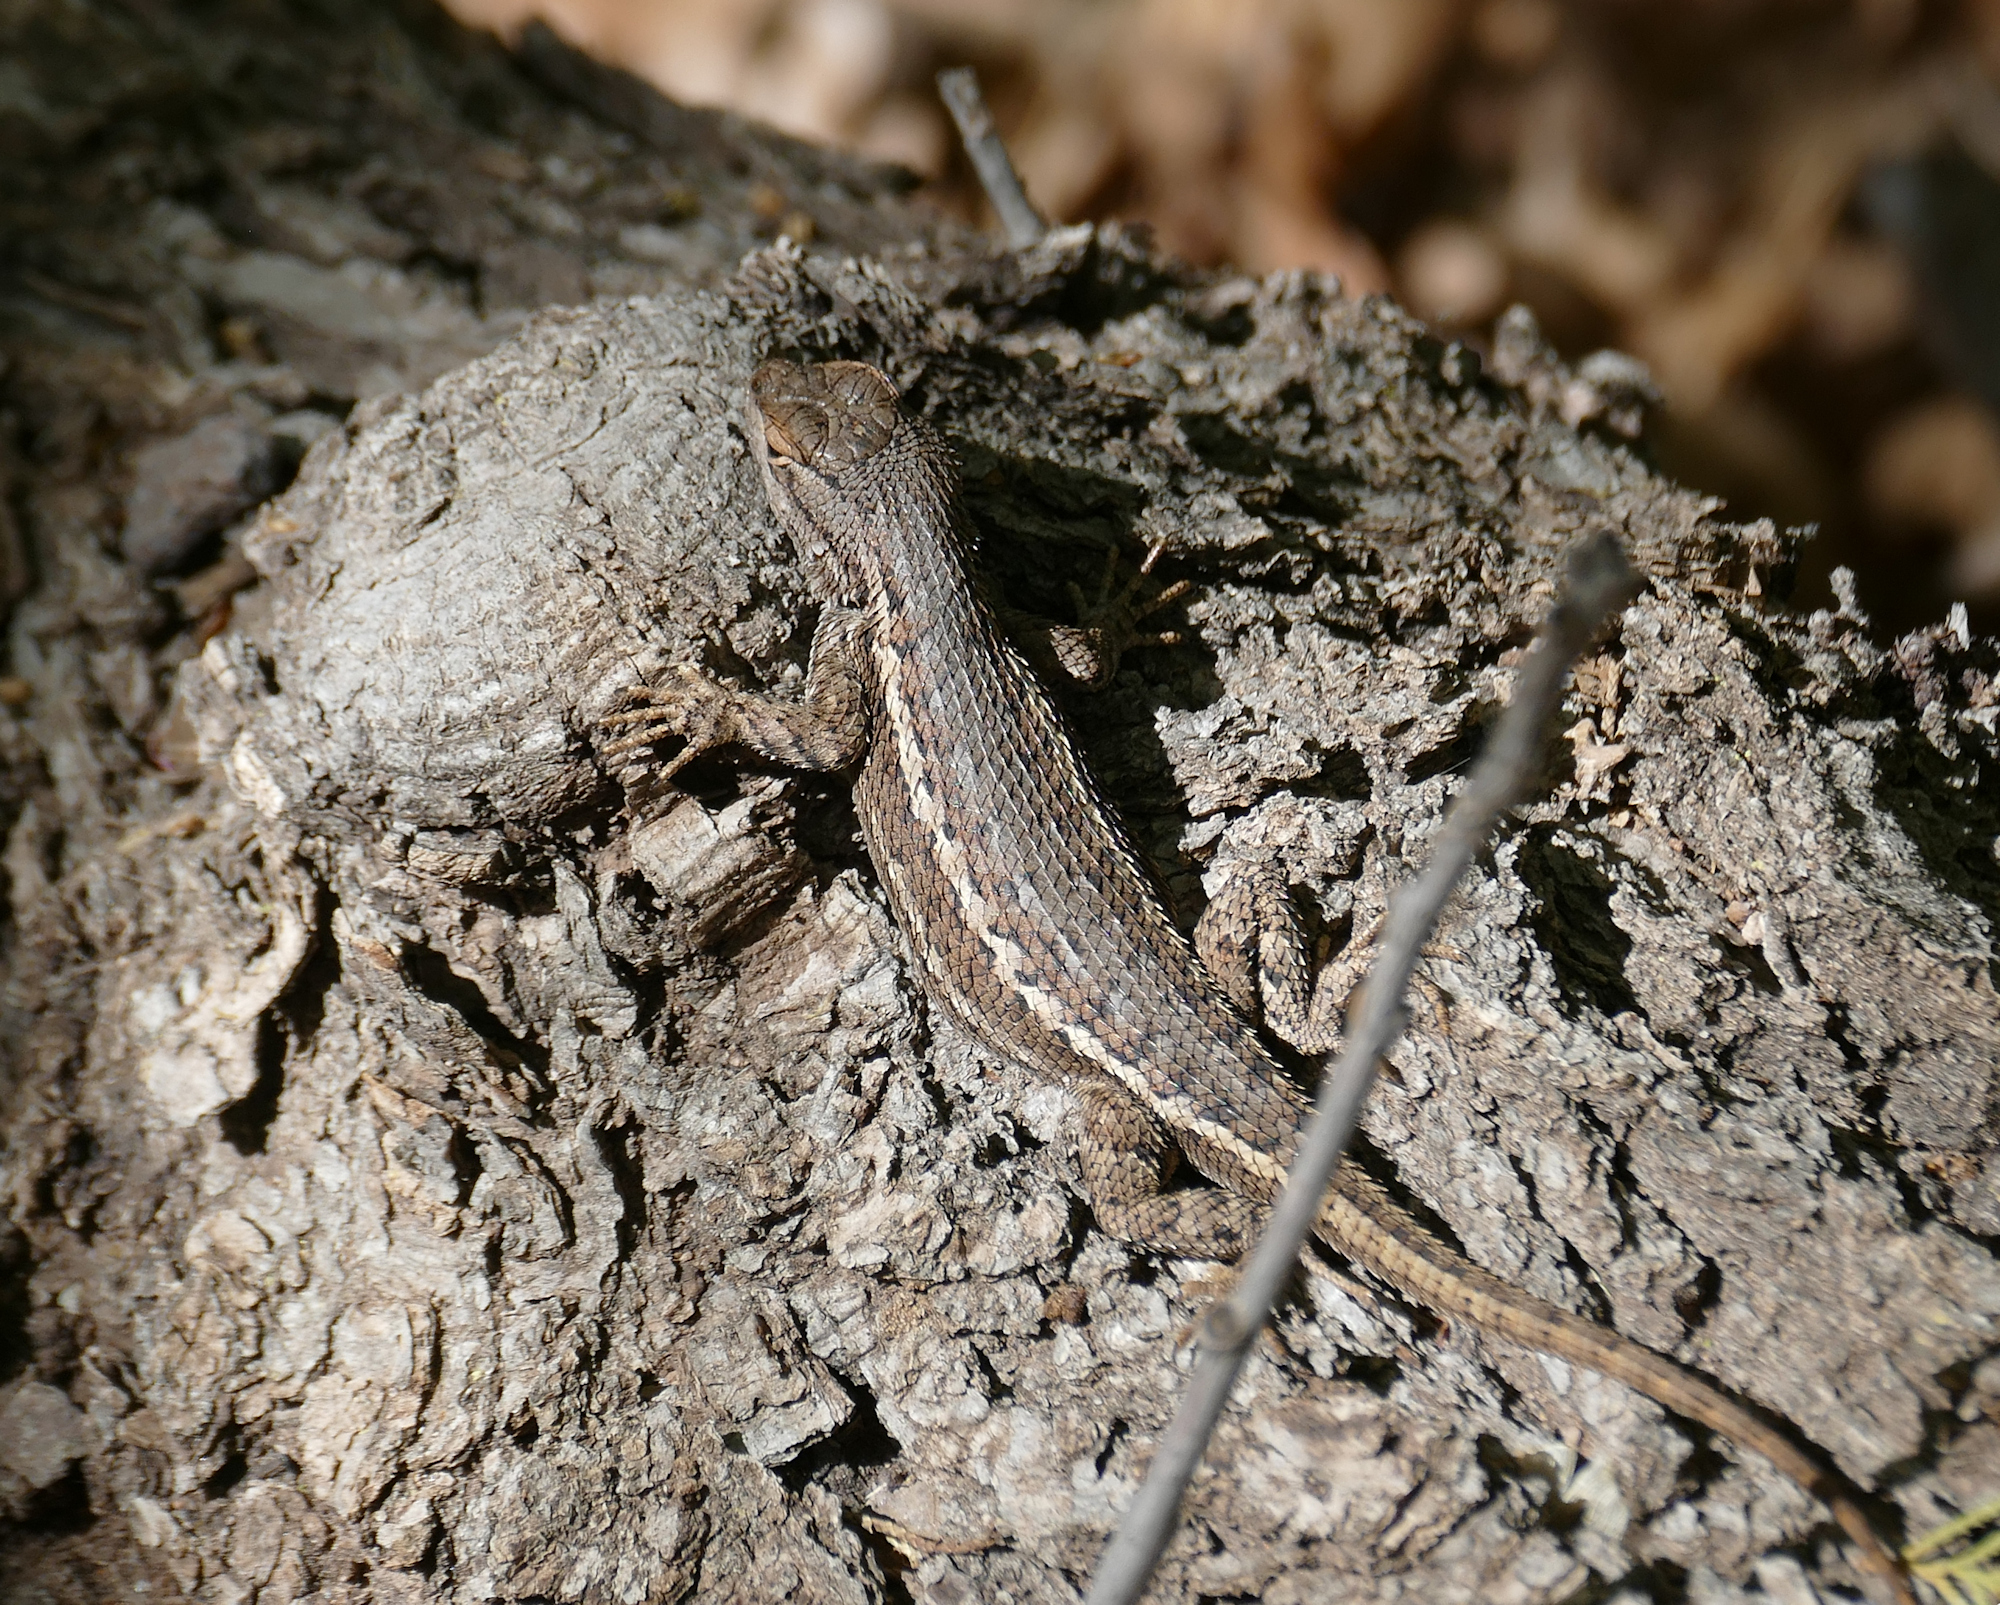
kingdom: Animalia
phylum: Chordata
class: Squamata
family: Phrynosomatidae
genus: Sceloporus
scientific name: Sceloporus cowlesi
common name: White sands prairie lizard
